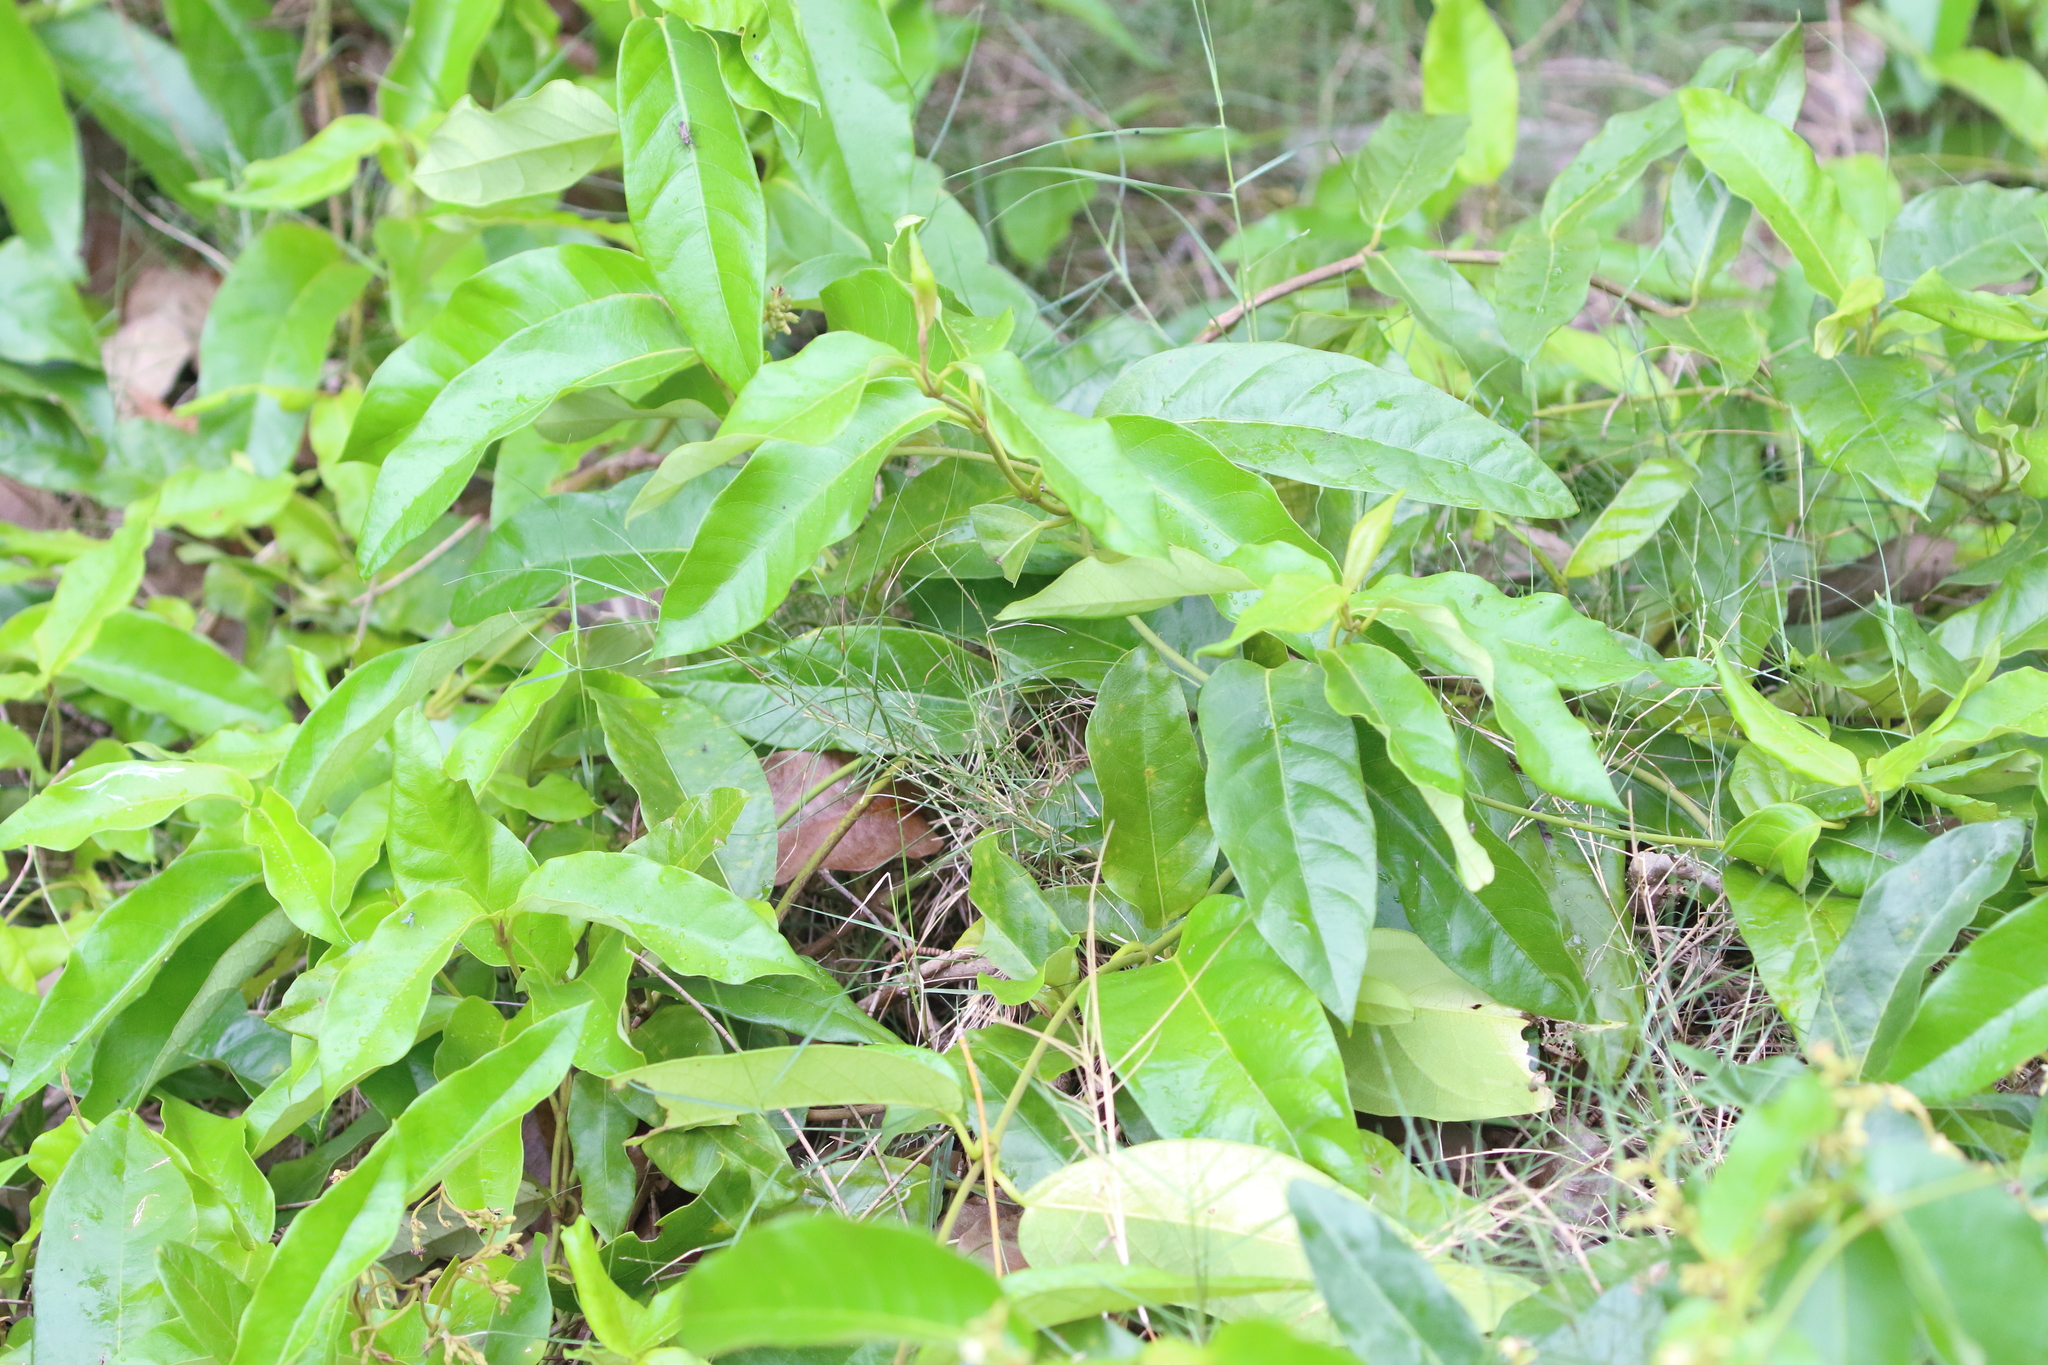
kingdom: Plantae
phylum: Tracheophyta
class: Magnoliopsida
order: Gentianales
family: Apocynaceae
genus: Parsonsia
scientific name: Parsonsia straminea
